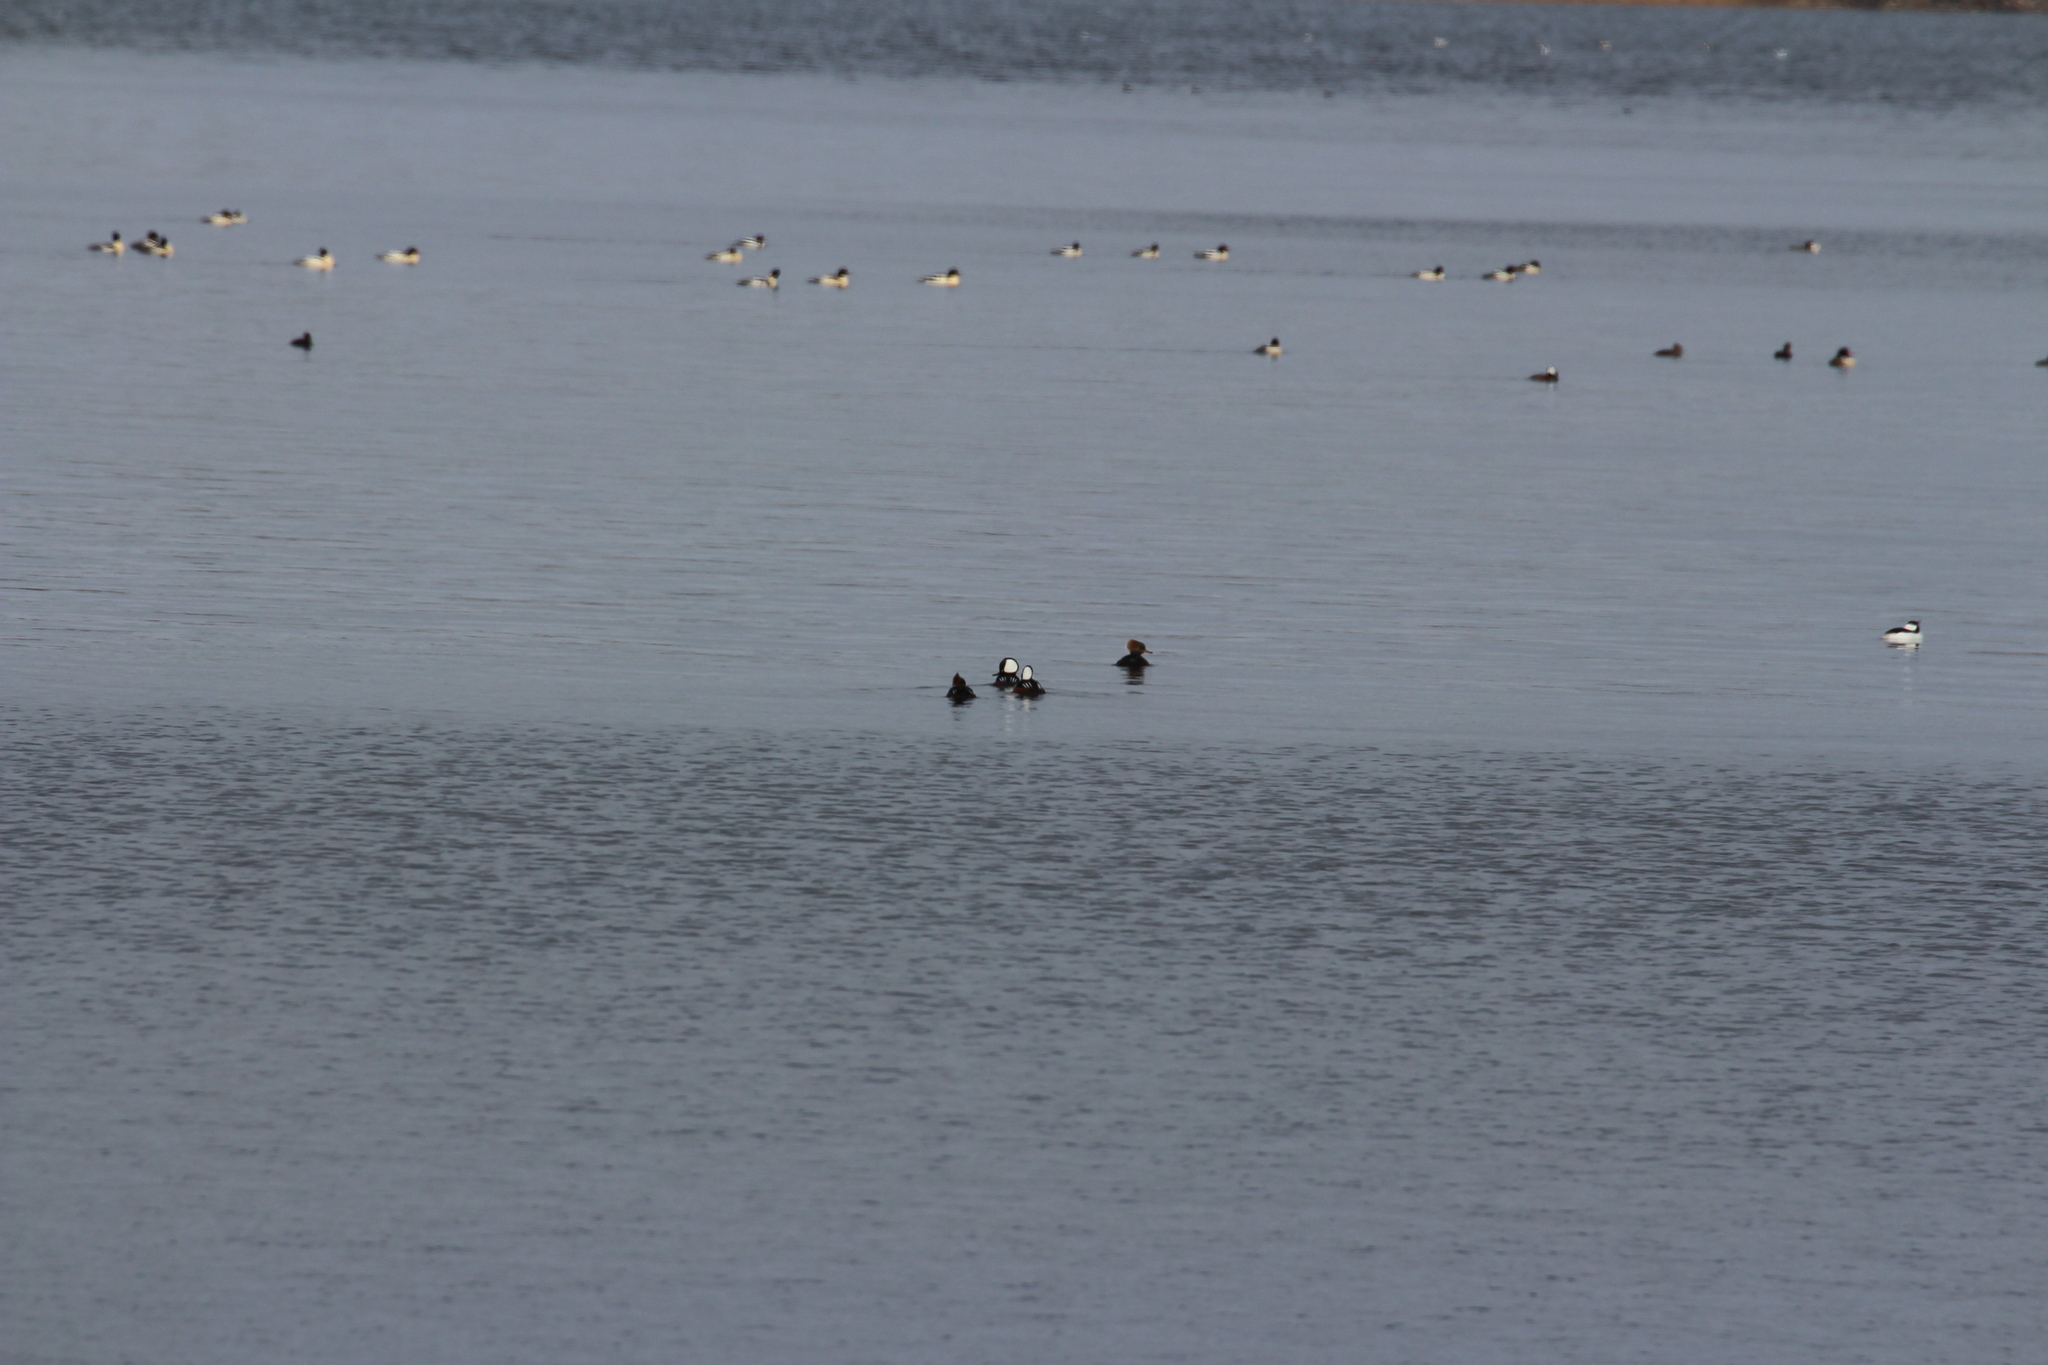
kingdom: Animalia
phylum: Chordata
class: Aves
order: Anseriformes
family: Anatidae
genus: Lophodytes
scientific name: Lophodytes cucullatus
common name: Hooded merganser
